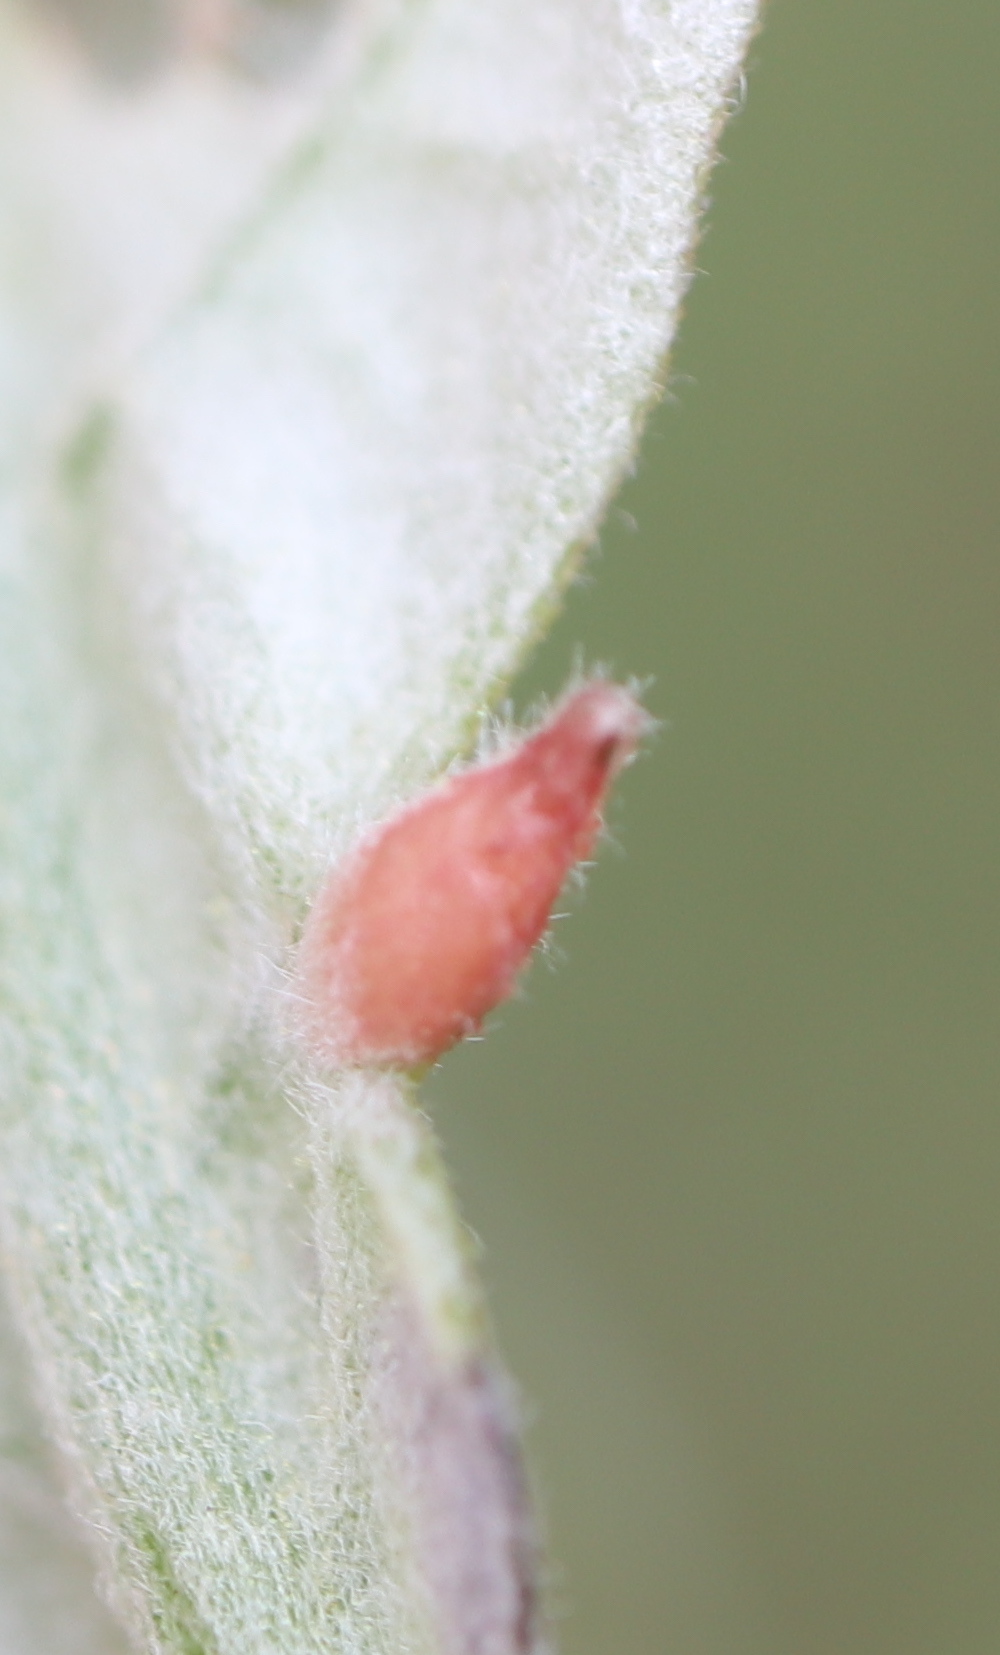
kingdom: Animalia
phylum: Arthropoda
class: Insecta
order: Hymenoptera
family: Cynipidae
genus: Andricus
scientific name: Andricus
